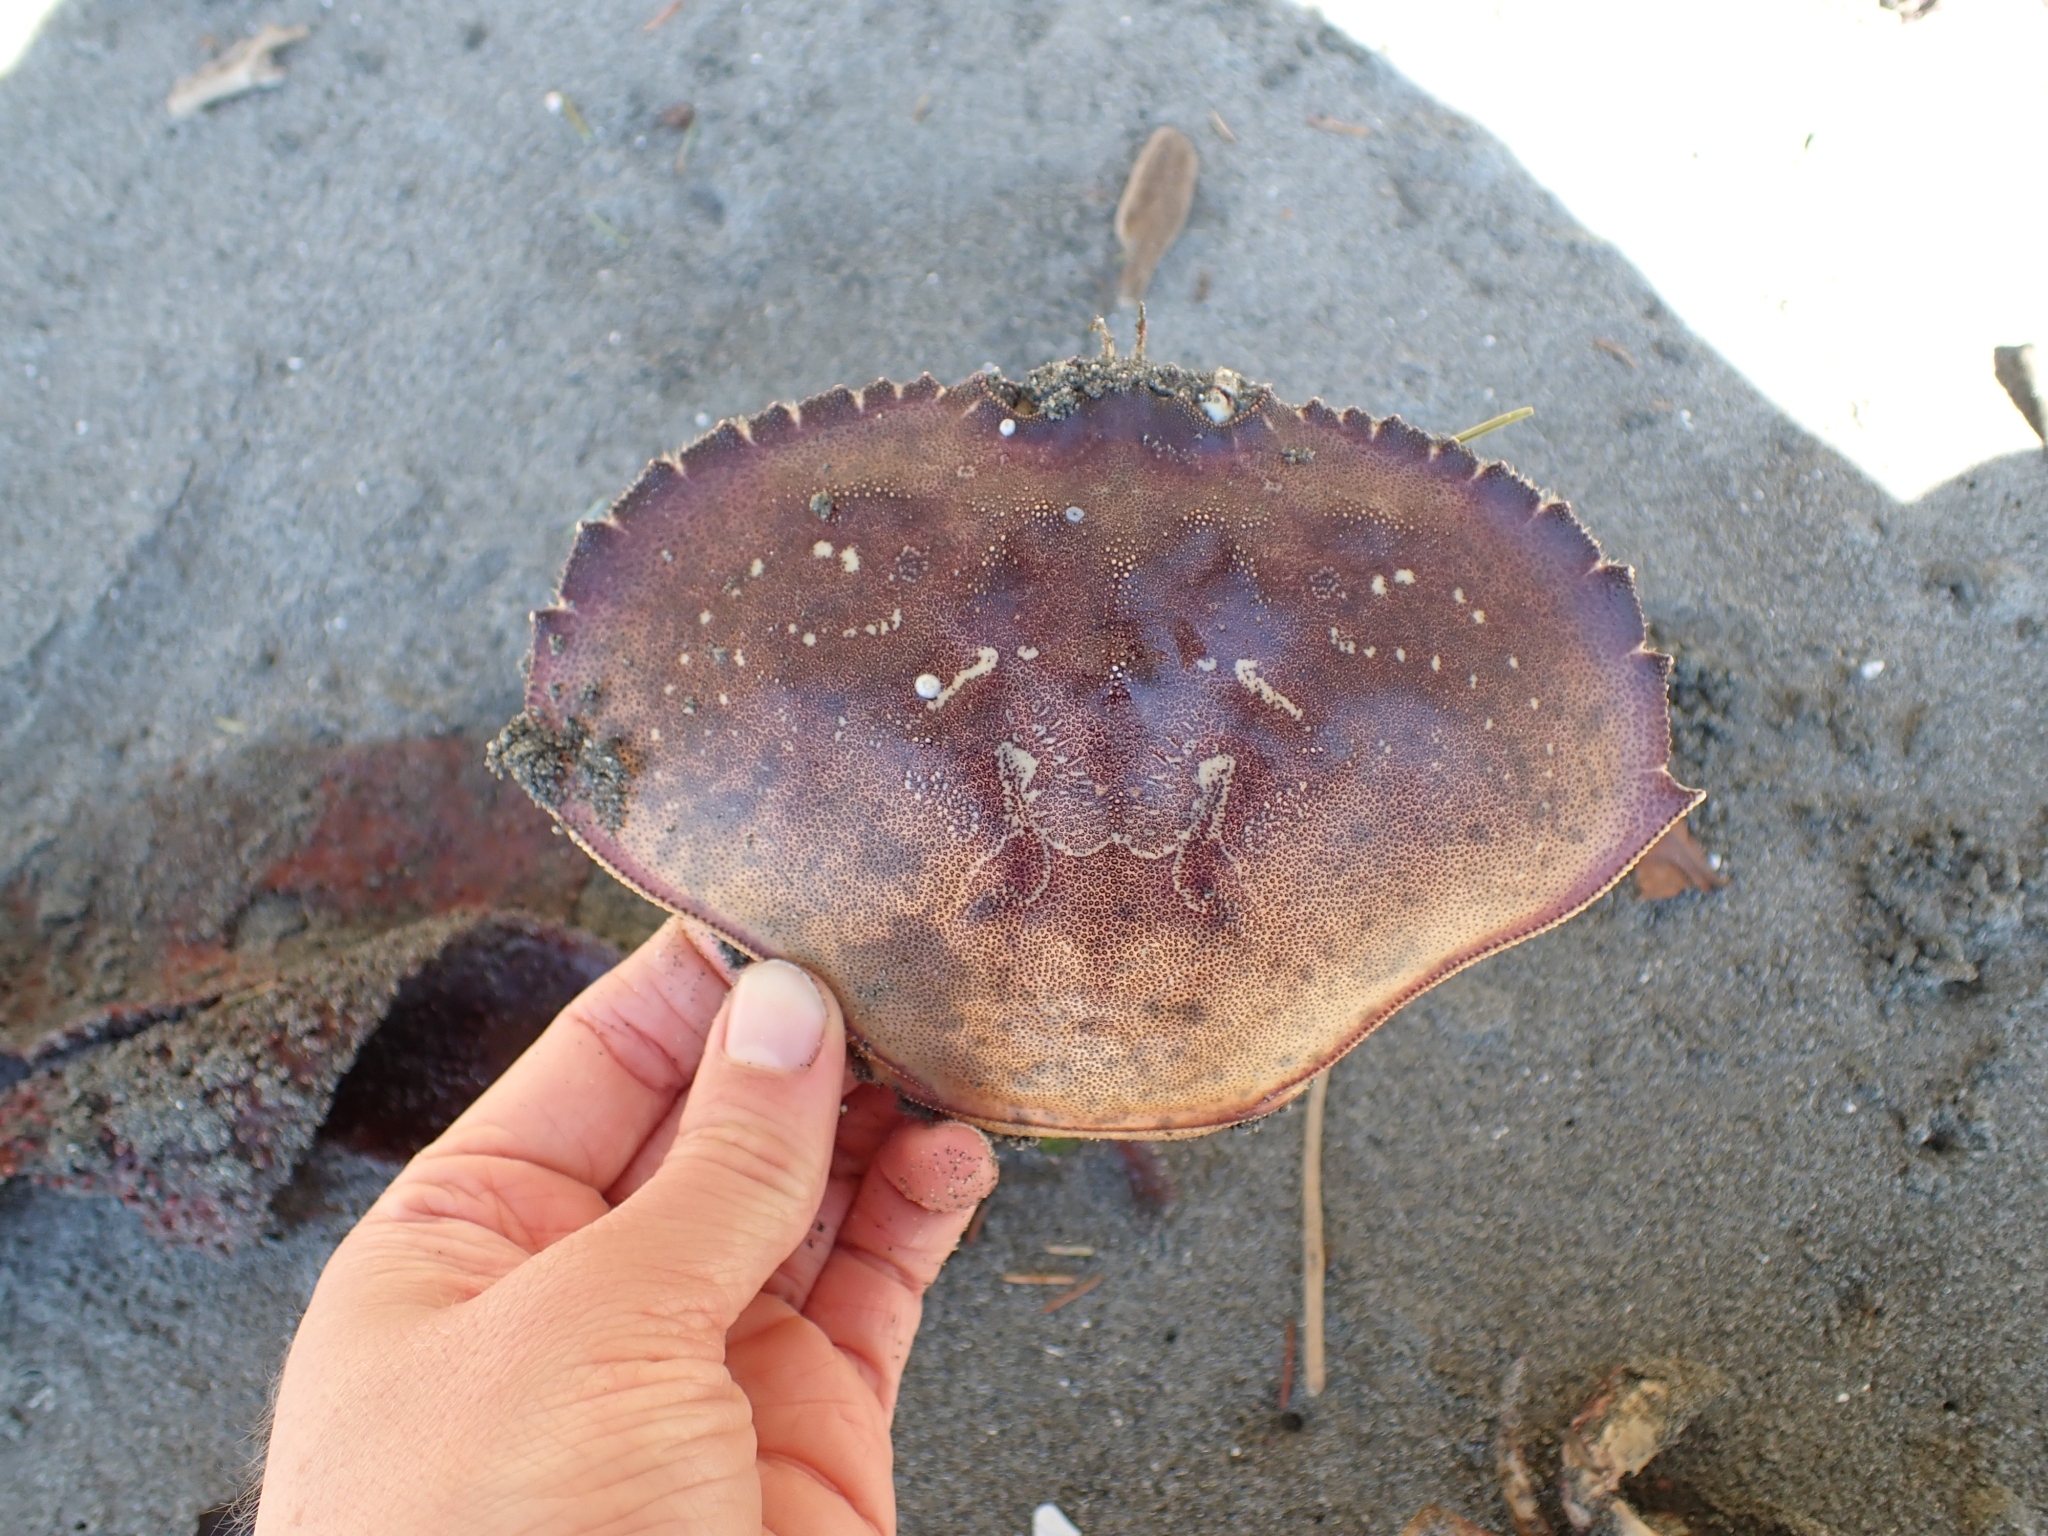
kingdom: Animalia
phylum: Arthropoda
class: Malacostraca
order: Decapoda
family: Cancridae
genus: Metacarcinus
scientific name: Metacarcinus magister
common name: Californian crab
